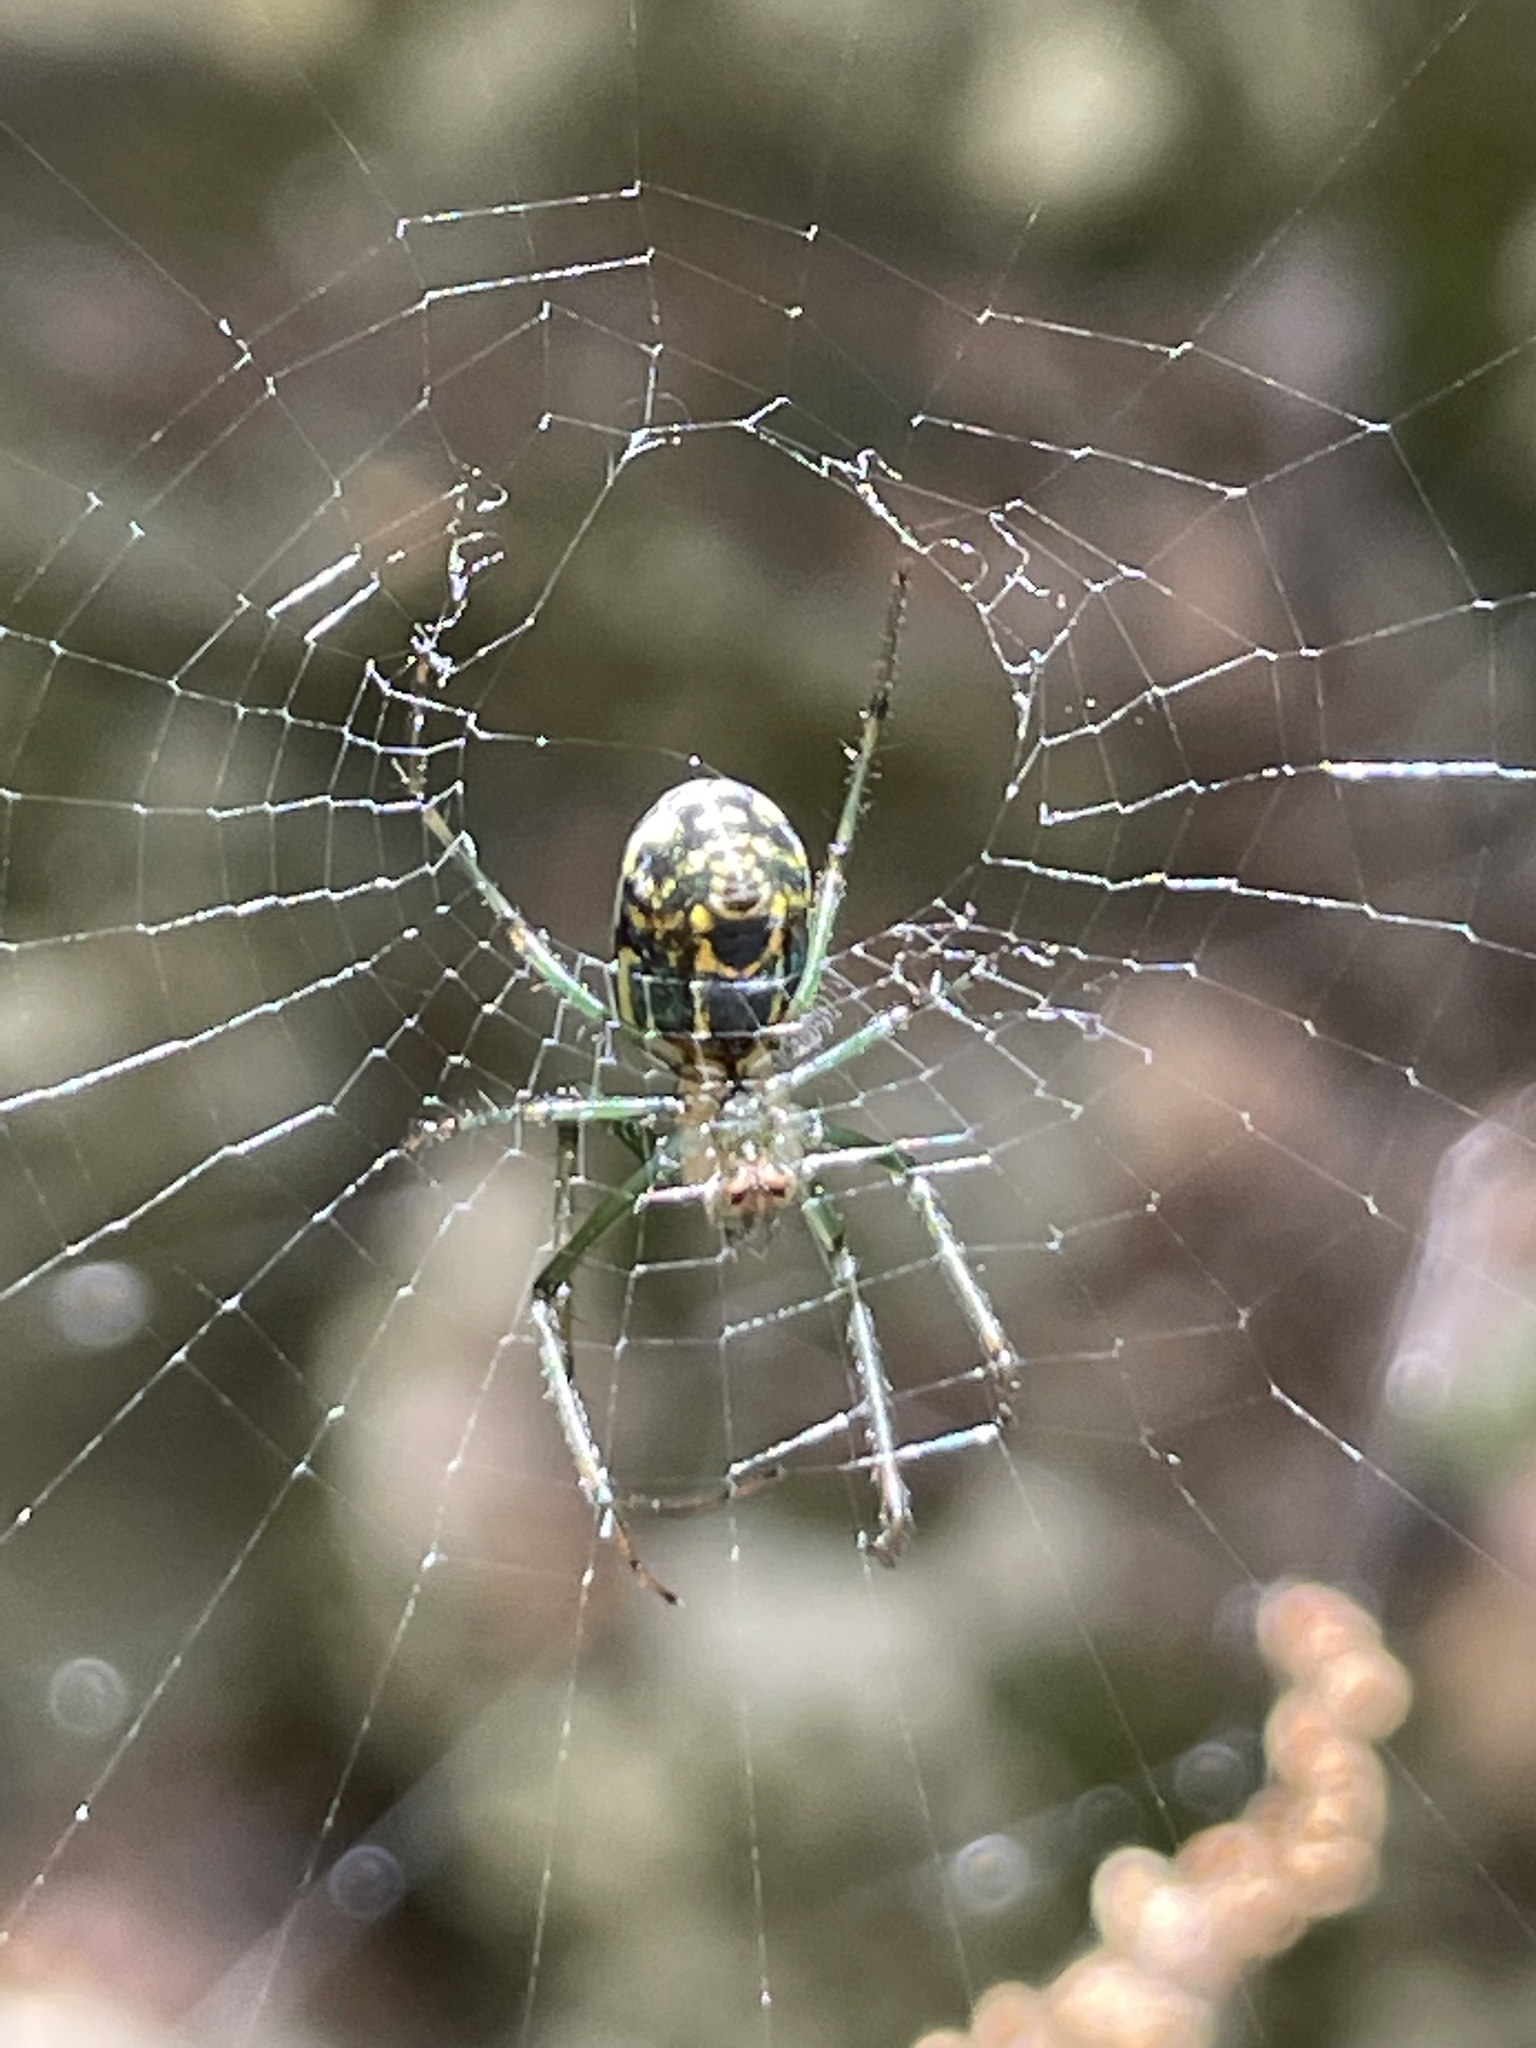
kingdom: Animalia
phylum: Arthropoda
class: Arachnida
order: Araneae
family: Tetragnathidae
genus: Leucauge
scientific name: Leucauge venusta
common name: Longjawed orb weavers
